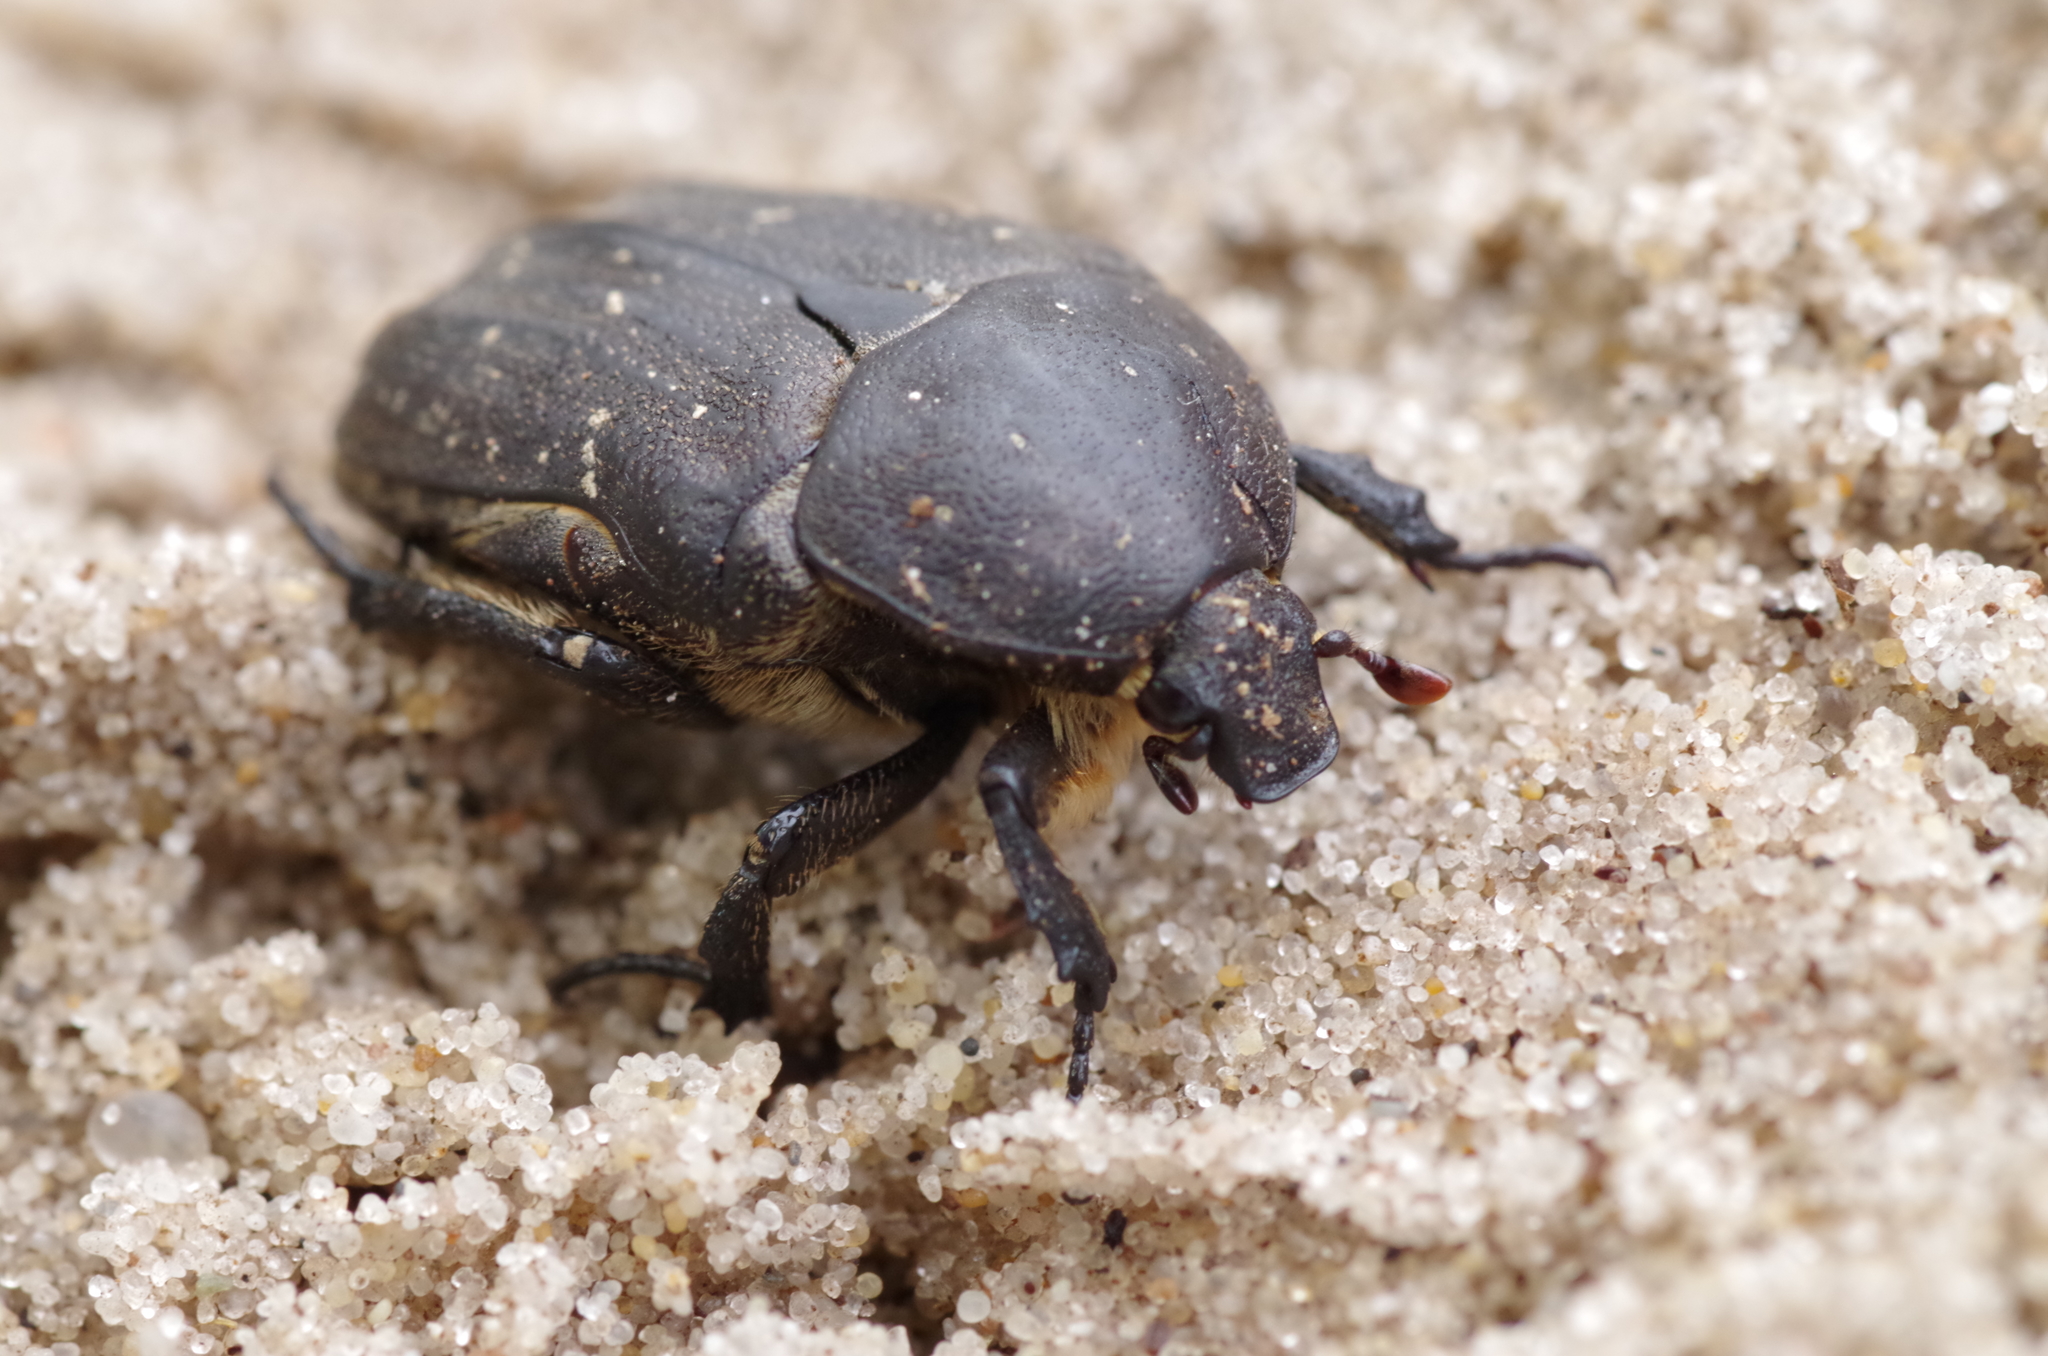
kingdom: Animalia
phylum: Arthropoda
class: Insecta
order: Coleoptera
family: Scarabaeidae
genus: Protaetia
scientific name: Protaetia morio
